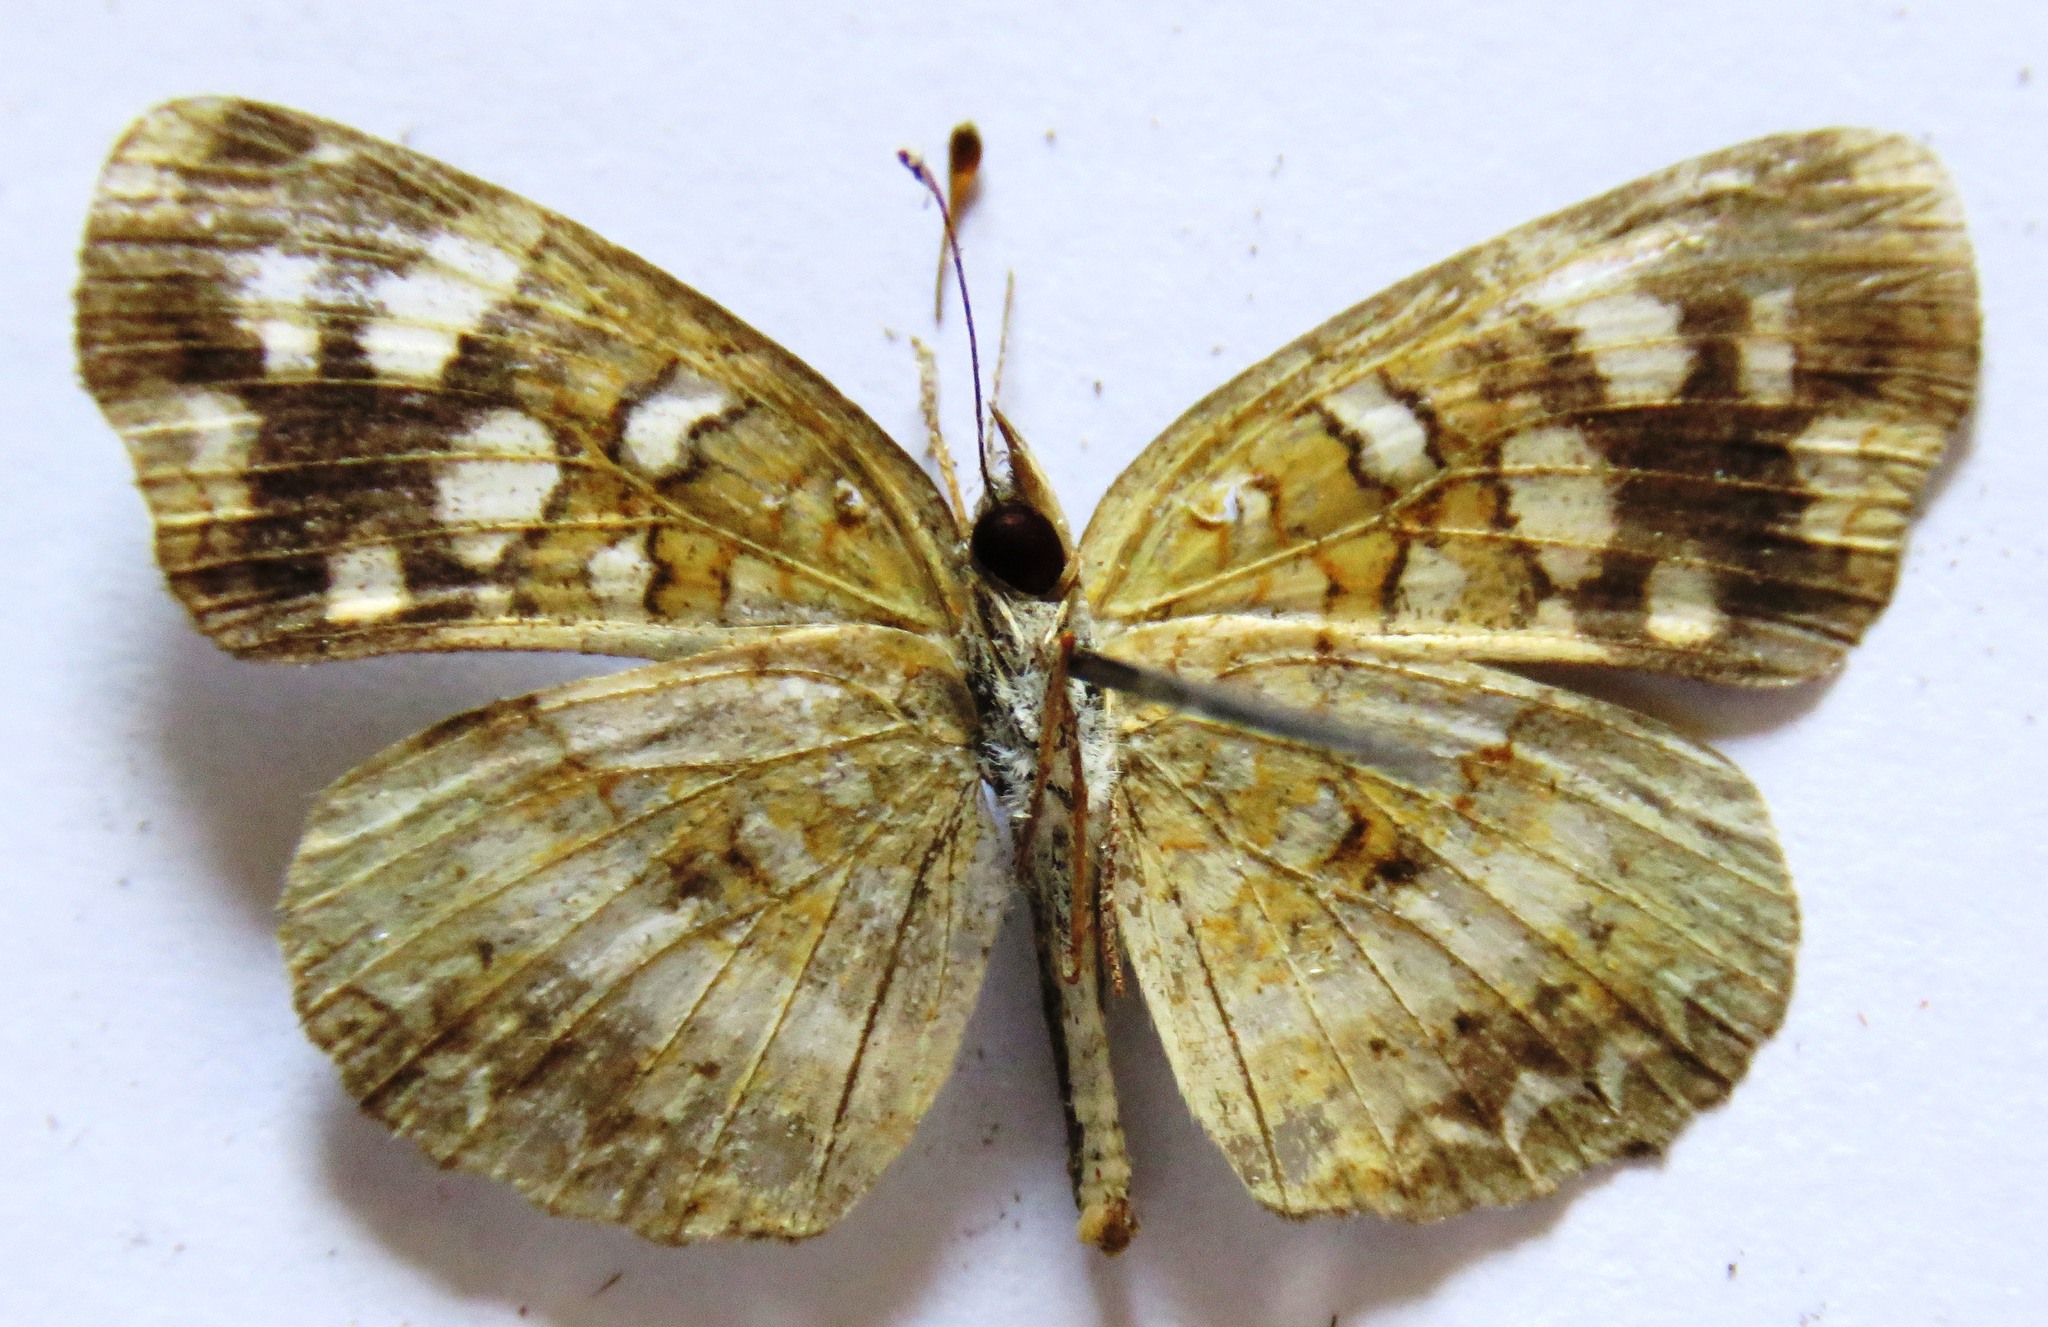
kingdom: Animalia
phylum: Arthropoda
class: Insecta
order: Lepidoptera
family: Nymphalidae
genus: Anthanassa
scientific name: Anthanassa tulcis
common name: Pale-banded crescent
